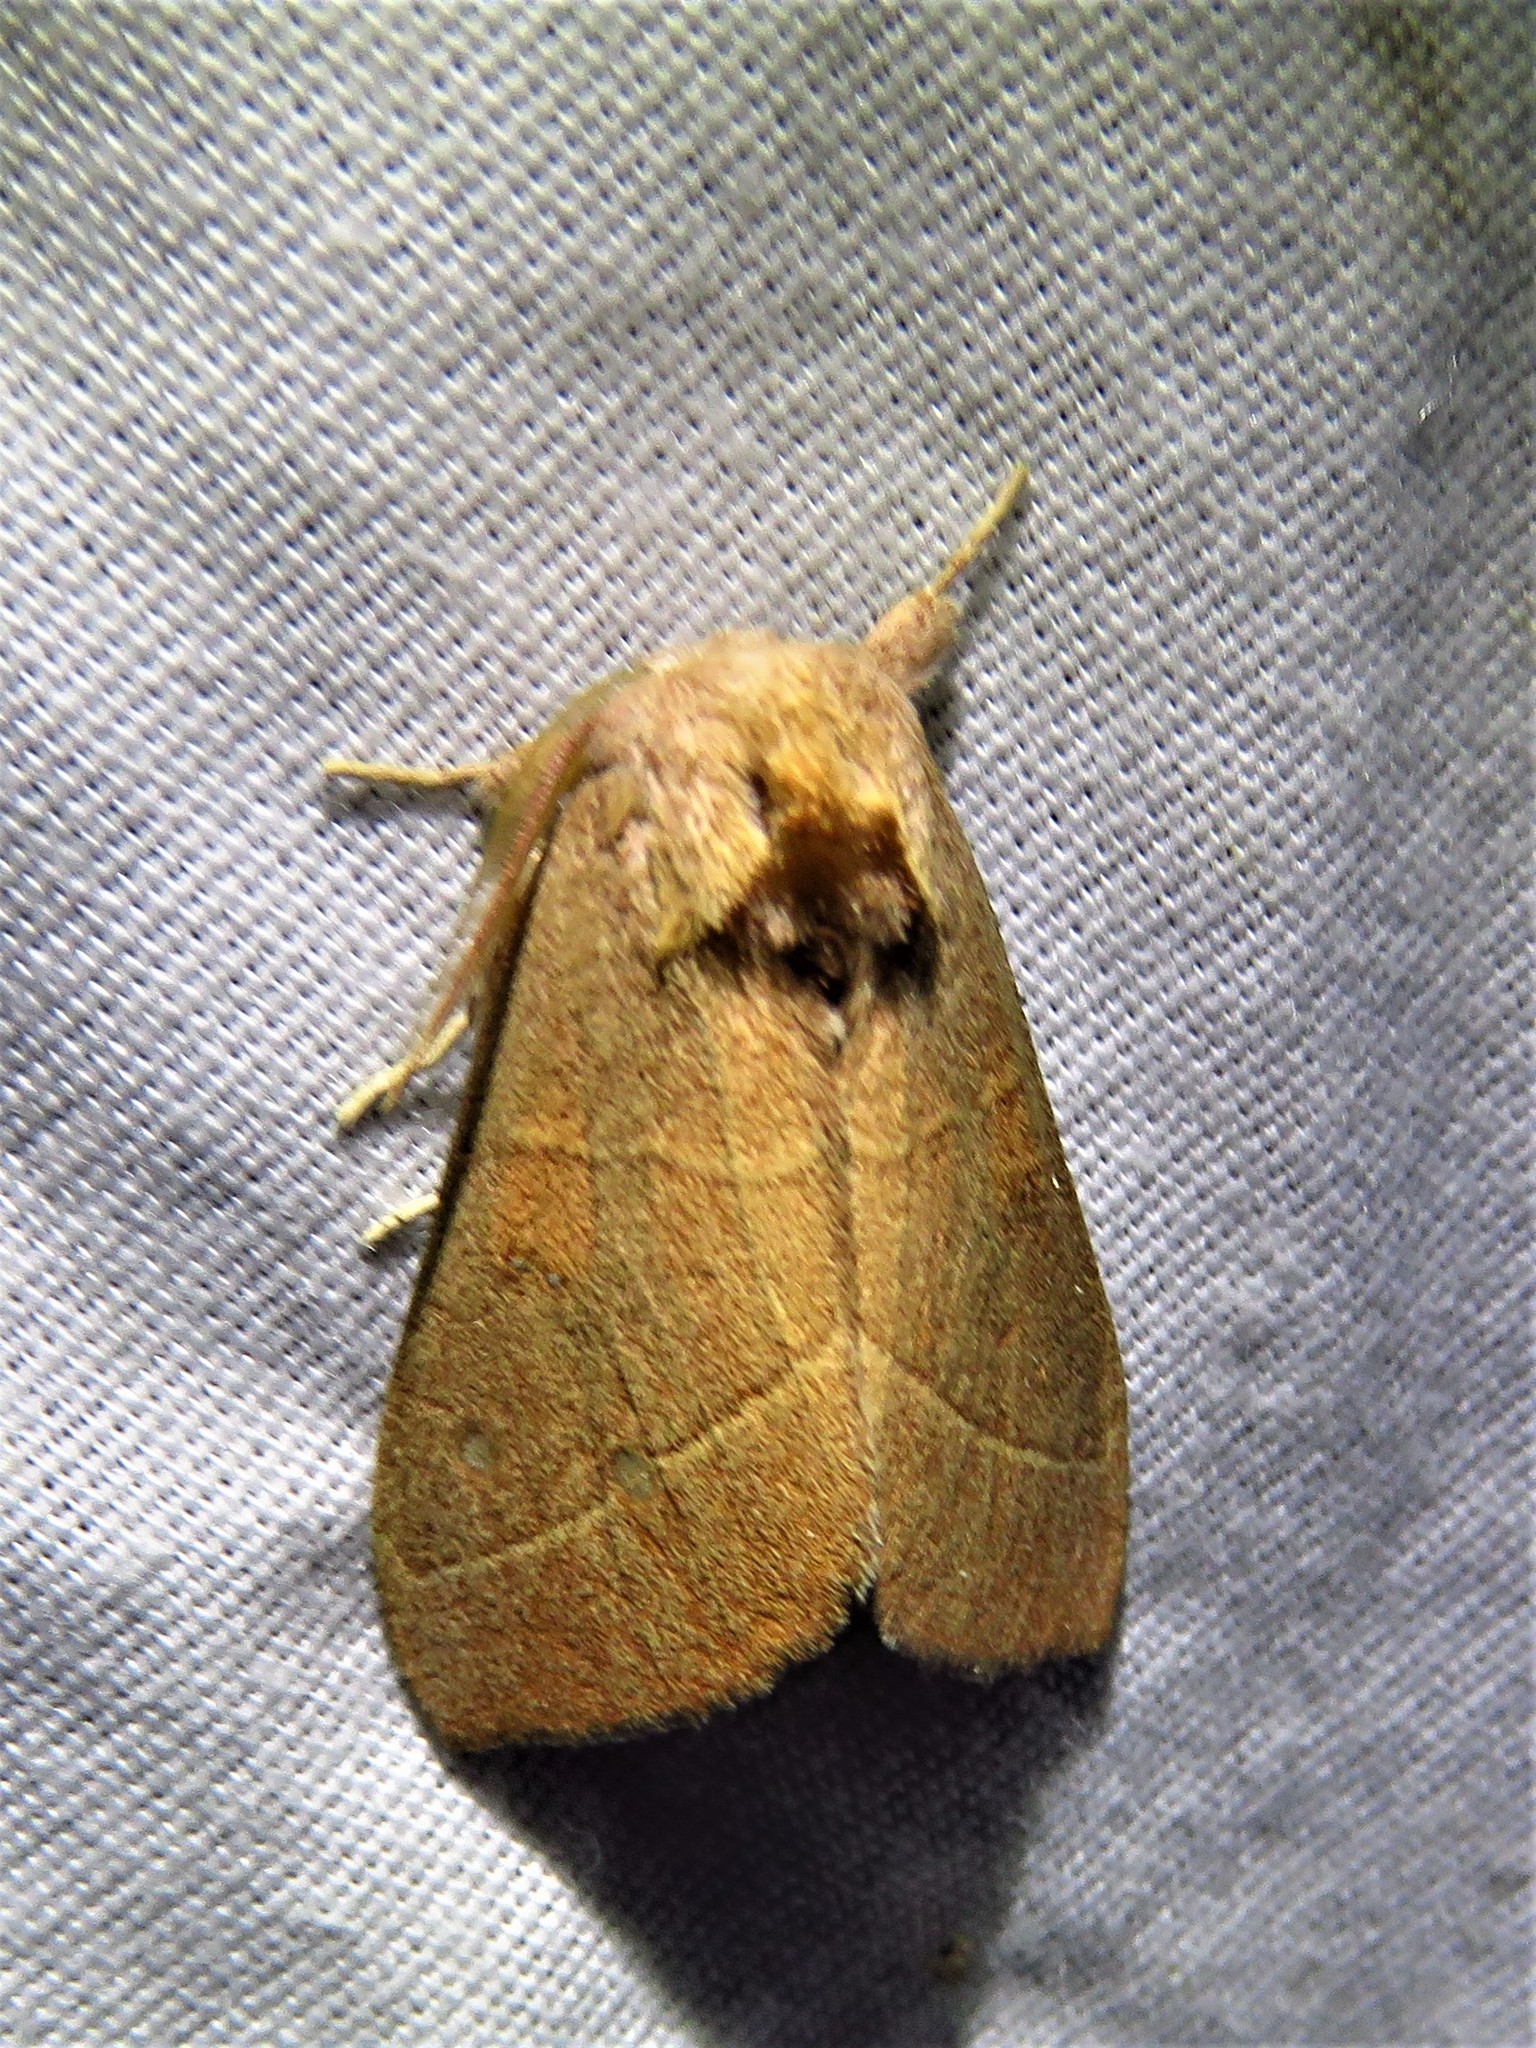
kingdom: Animalia
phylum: Arthropoda
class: Insecta
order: Lepidoptera
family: Notodontidae
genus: Nadata
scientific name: Nadata gibbosa
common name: White-dotted prominent
